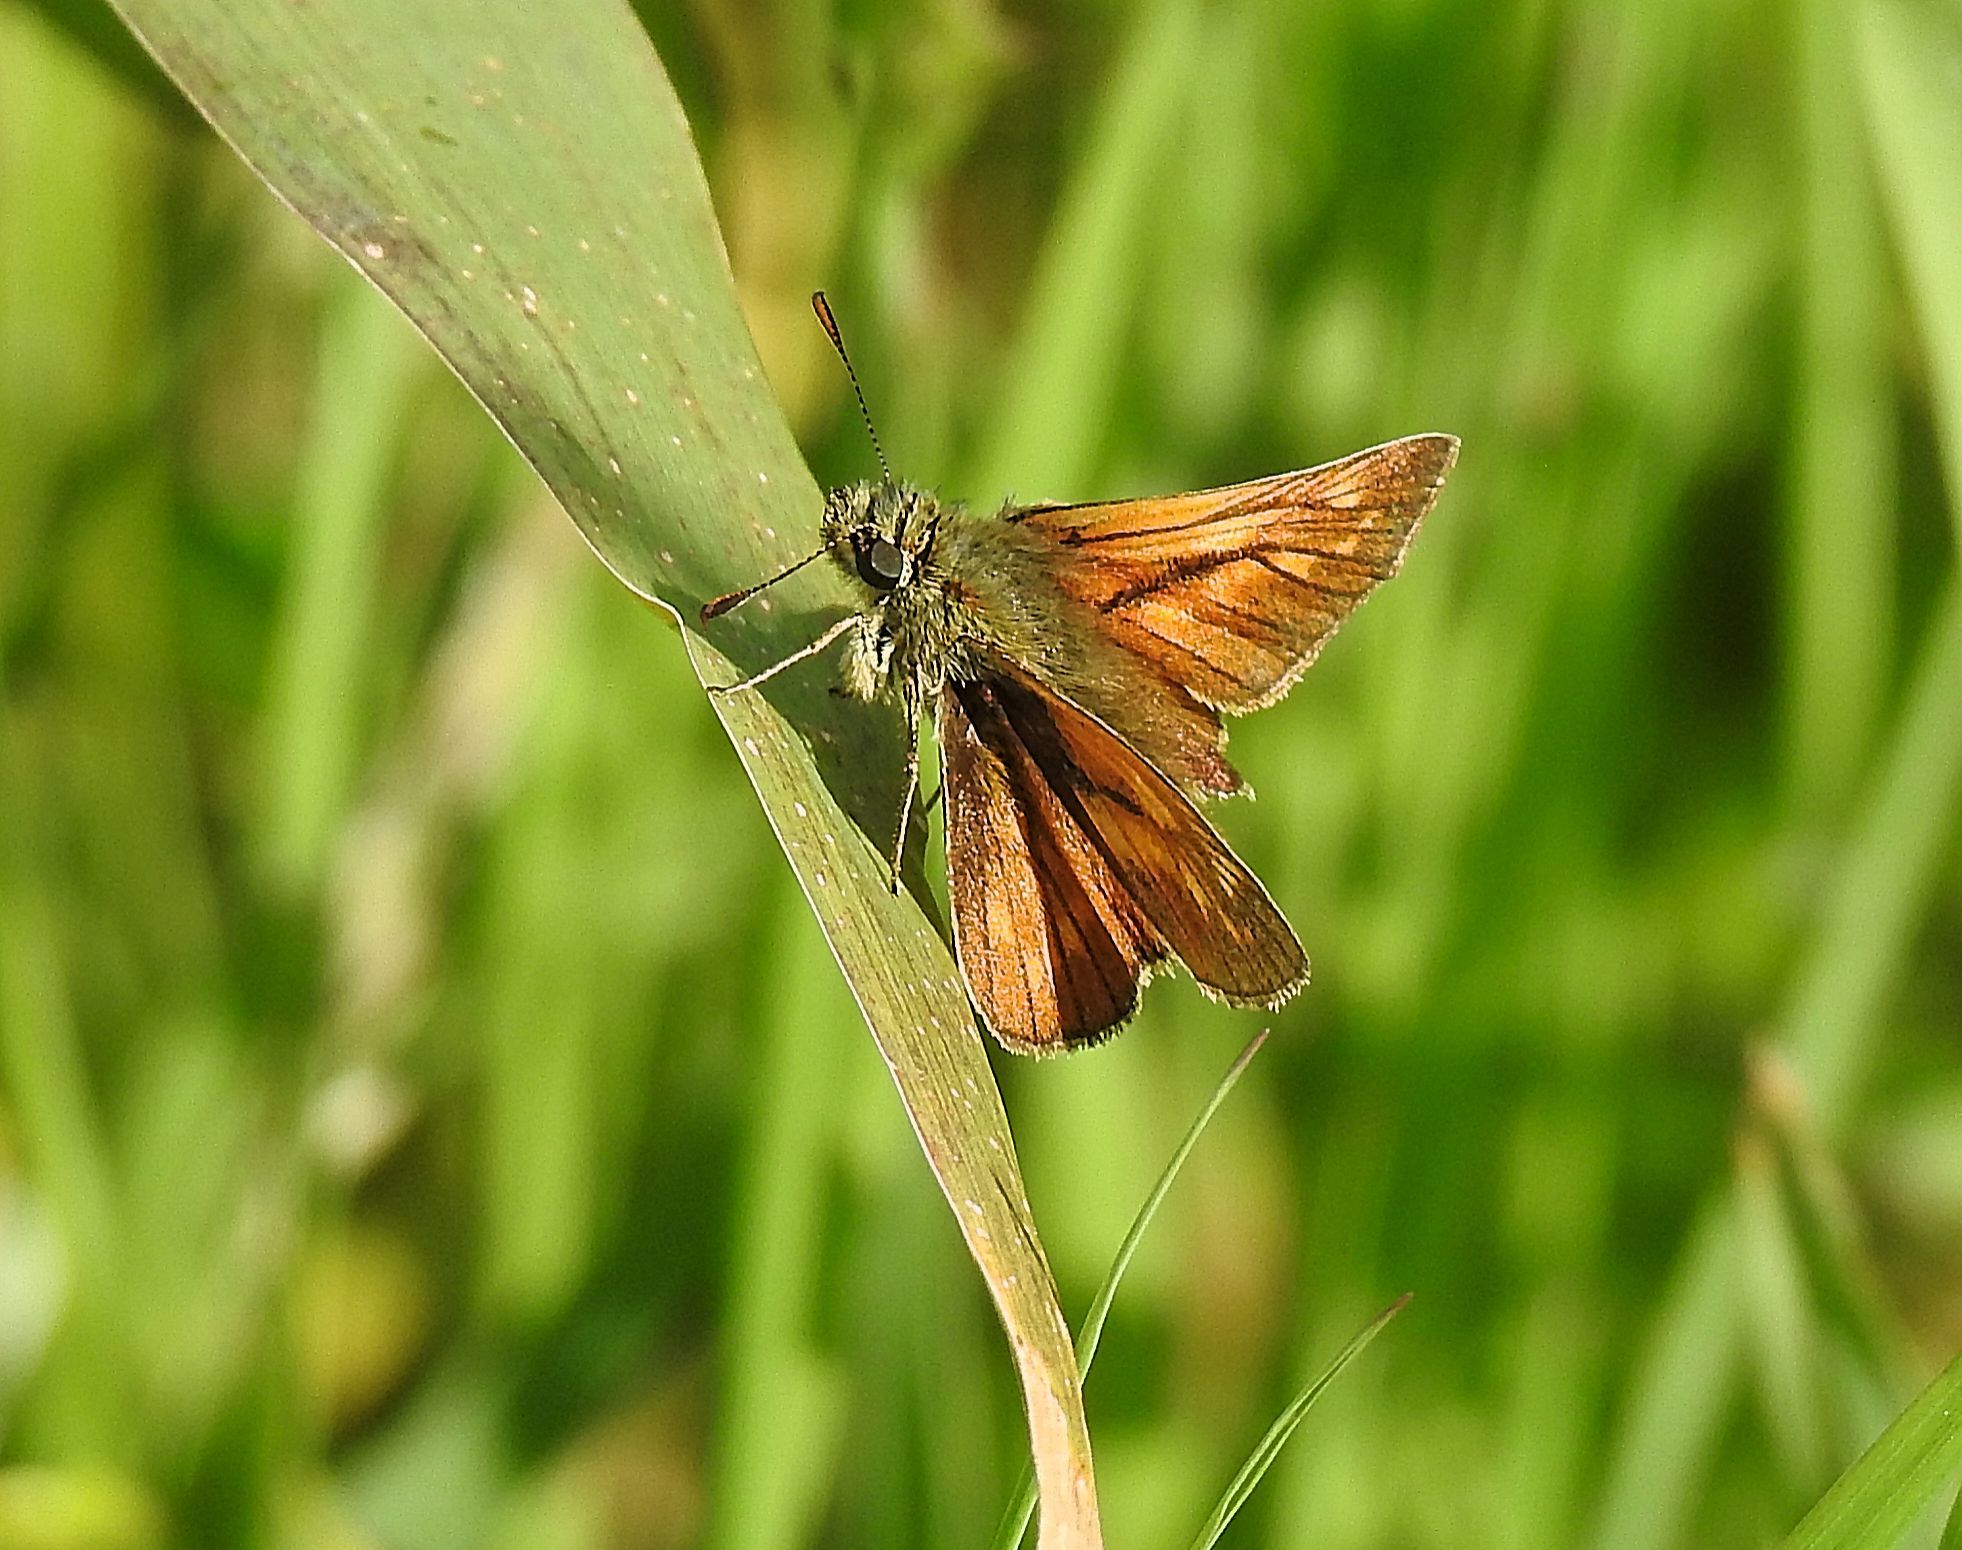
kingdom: Animalia
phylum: Arthropoda
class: Insecta
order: Lepidoptera
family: Hesperiidae
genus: Ochlodes
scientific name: Ochlodes venata
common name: Large skipper
